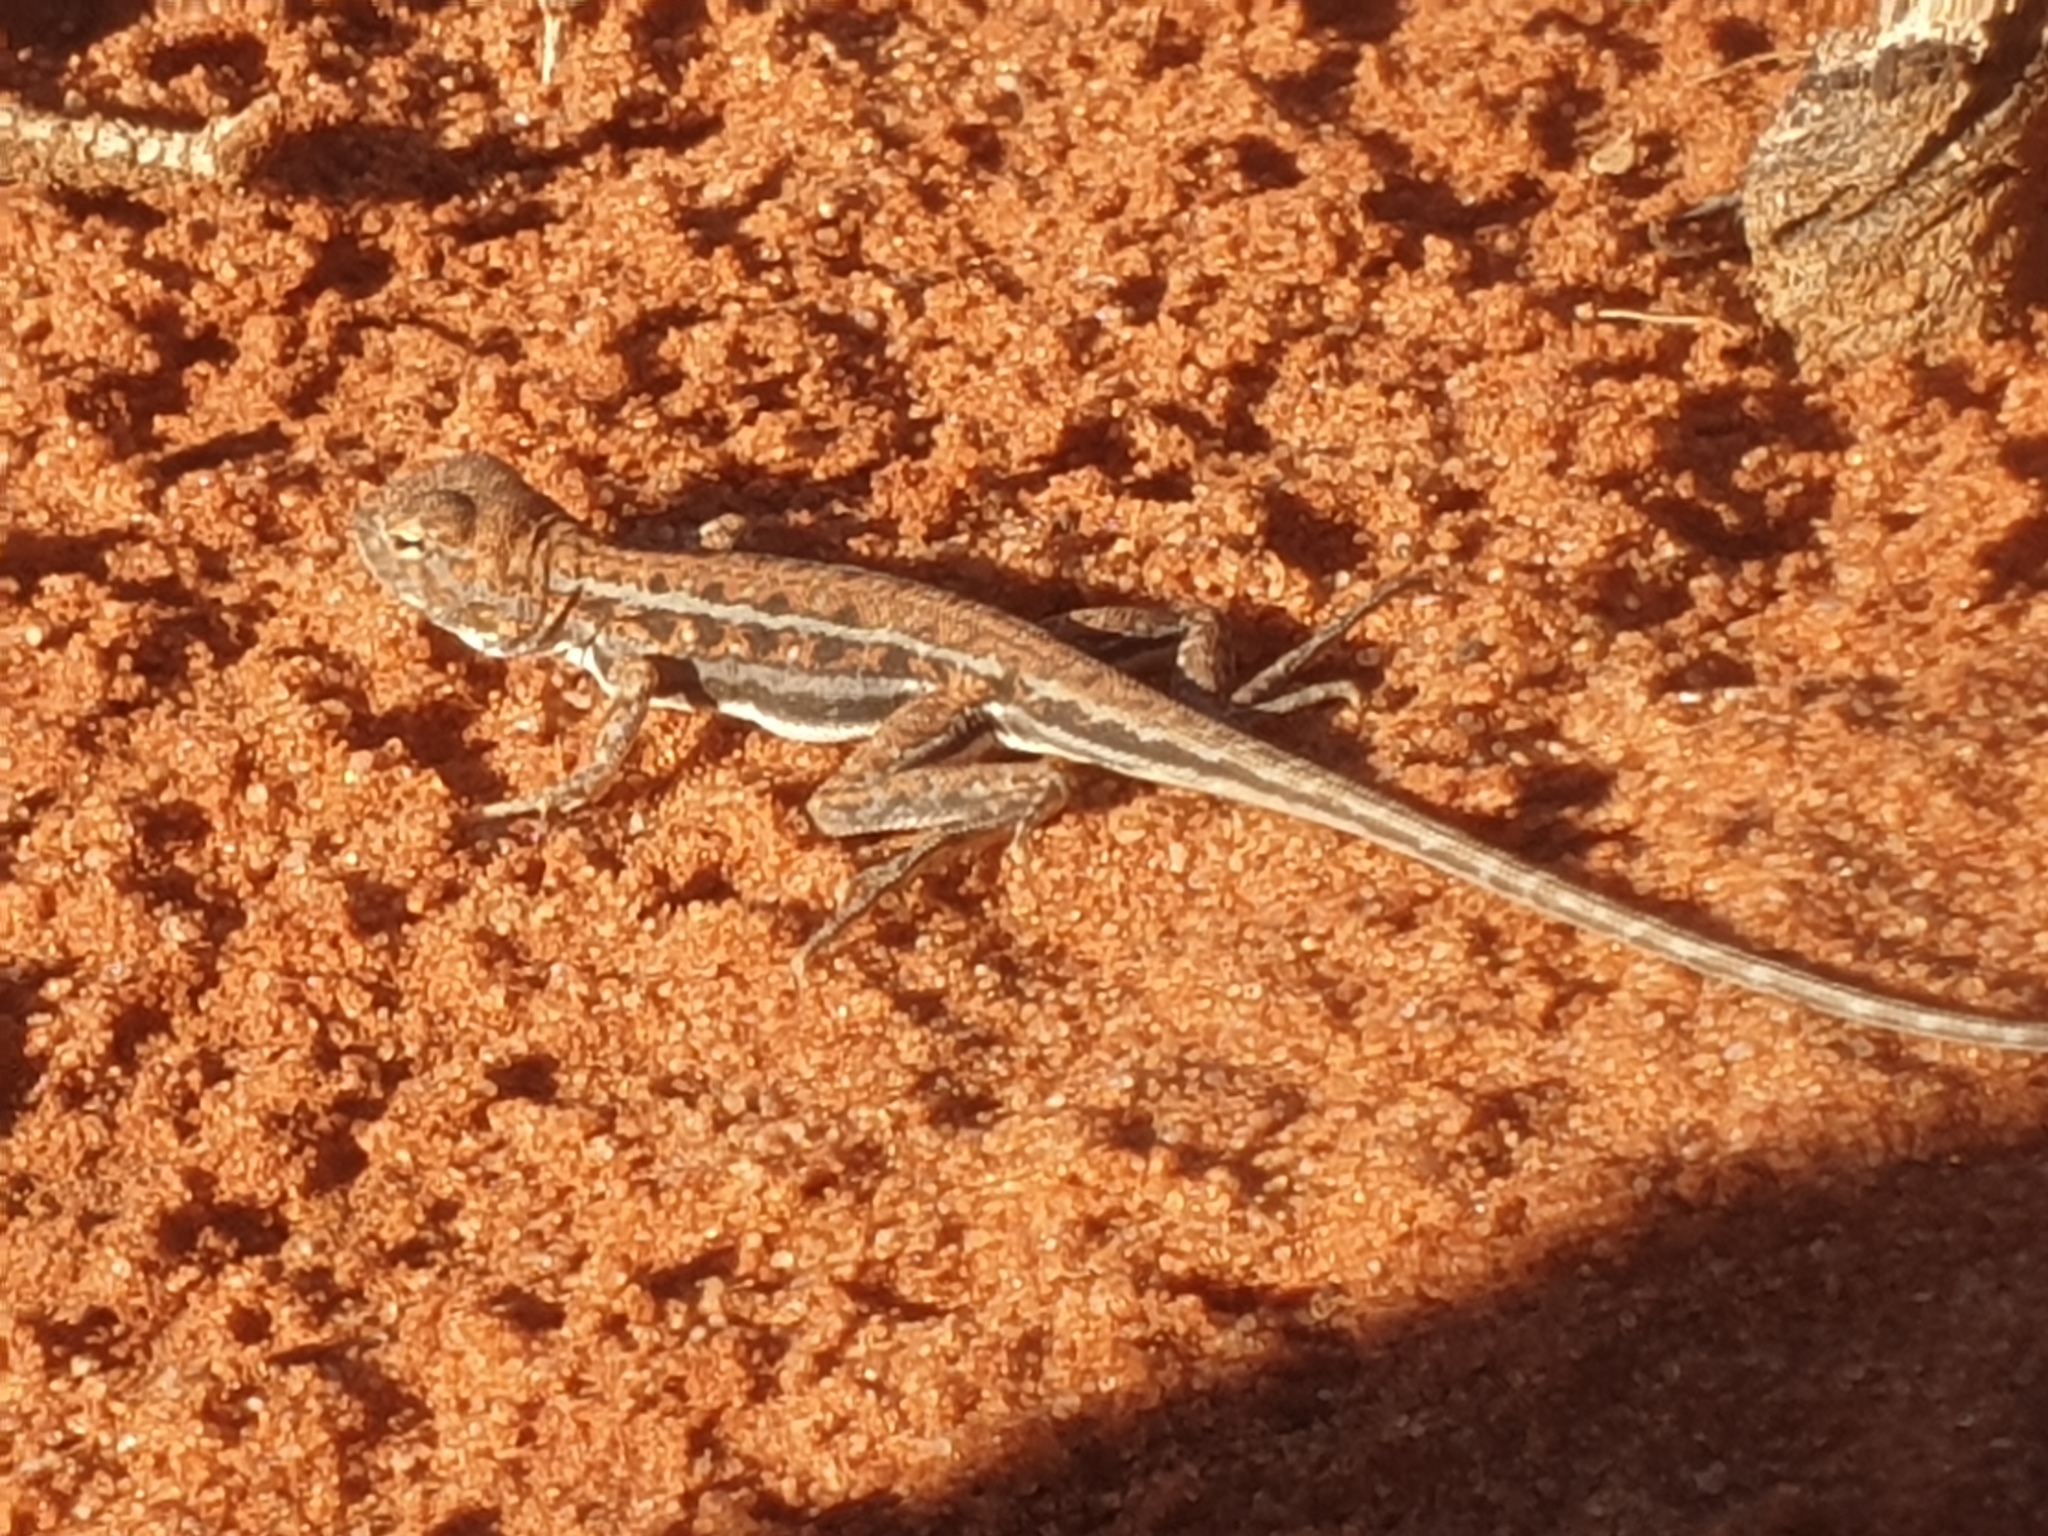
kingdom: Animalia
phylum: Chordata
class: Squamata
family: Agamidae
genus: Ctenophorus
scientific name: Ctenophorus
